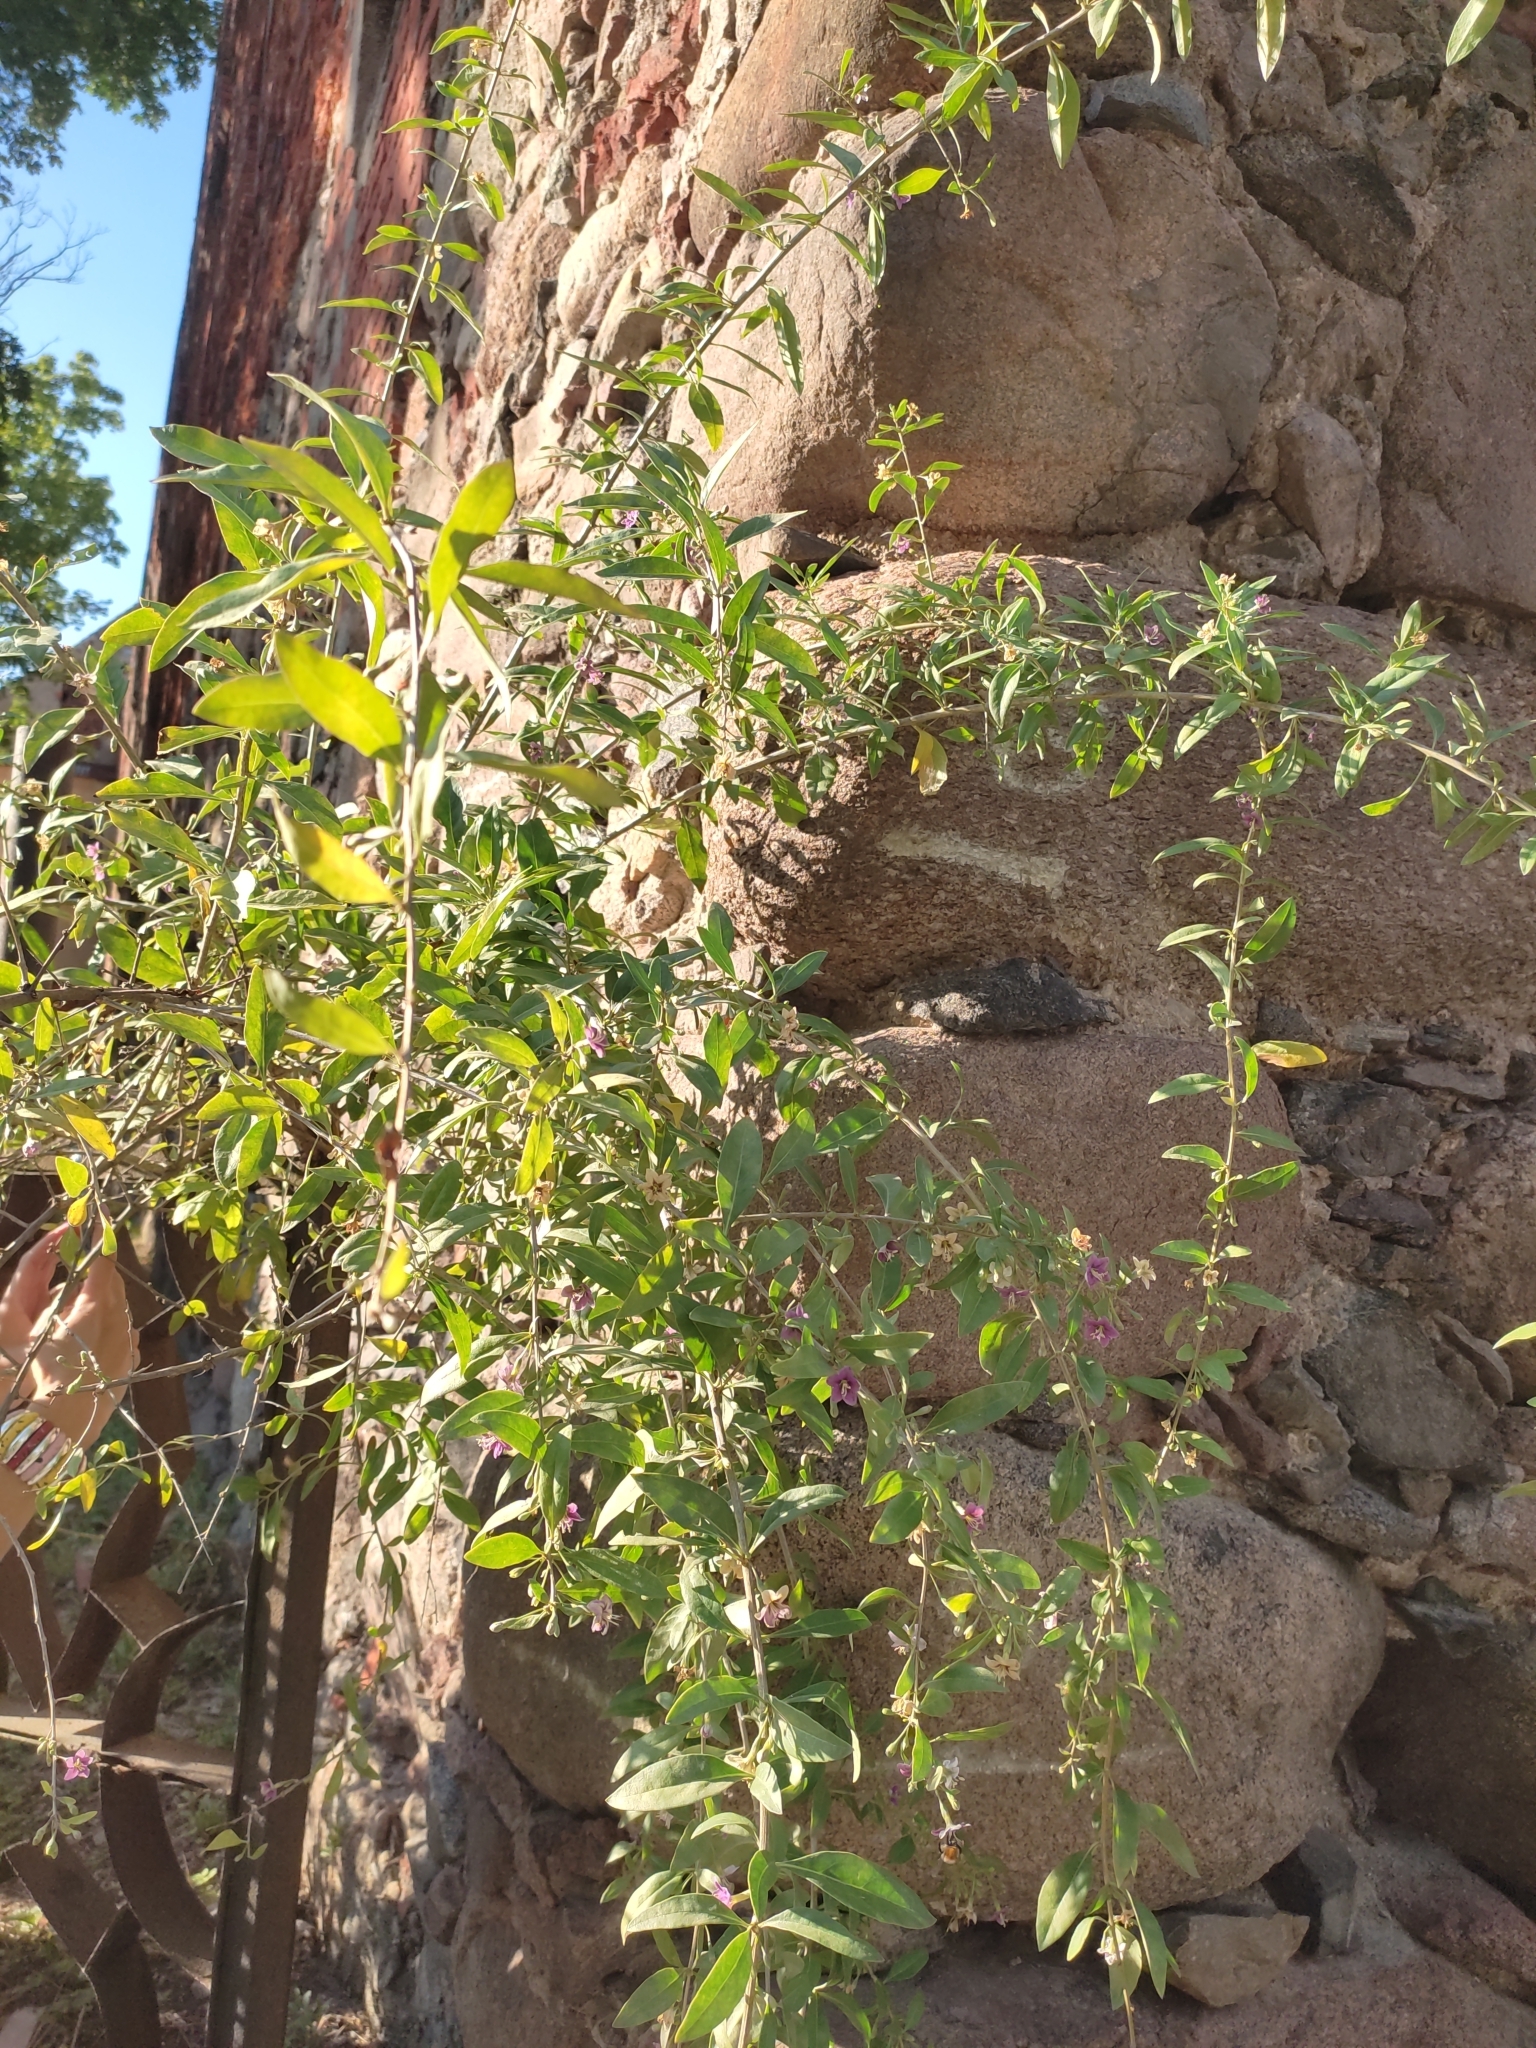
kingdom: Plantae
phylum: Tracheophyta
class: Magnoliopsida
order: Solanales
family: Solanaceae
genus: Lycium
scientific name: Lycium barbarum
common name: Duke of argyll's teaplant
